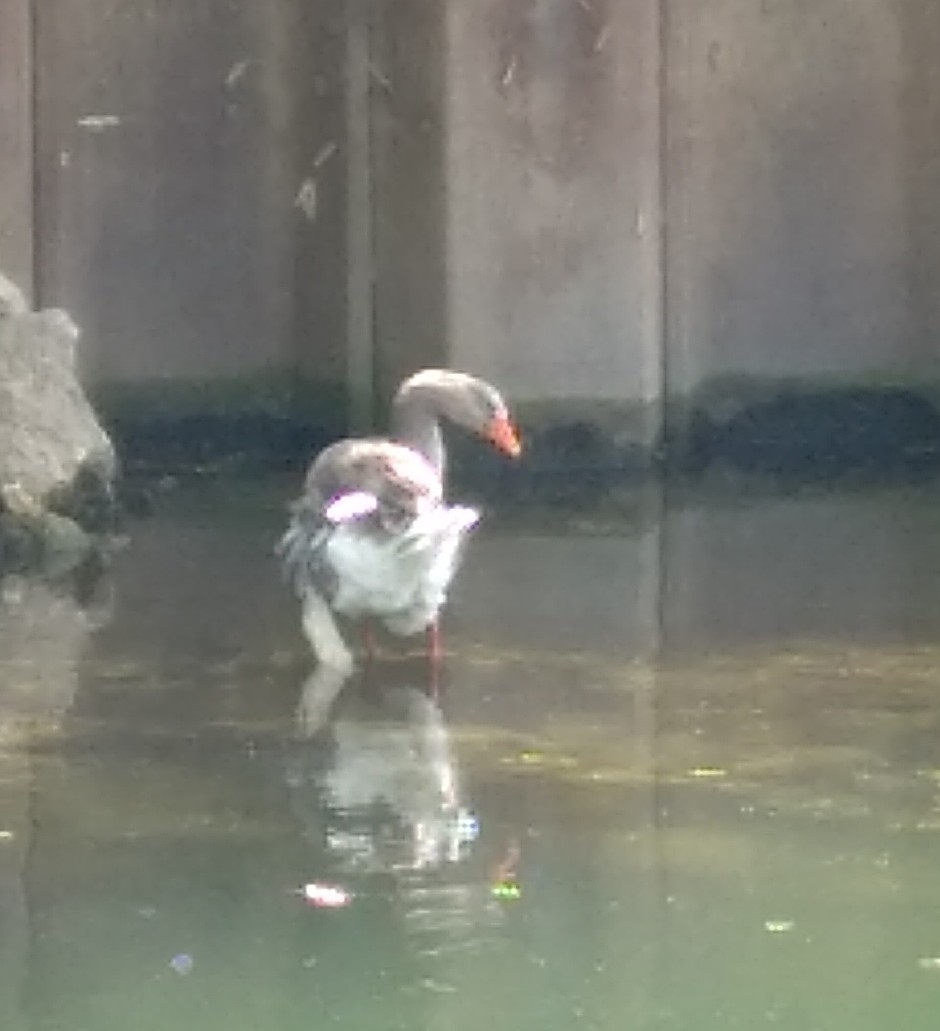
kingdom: Animalia
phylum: Chordata
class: Aves
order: Anseriformes
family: Anatidae
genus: Anser
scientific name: Anser anser
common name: Greylag goose
